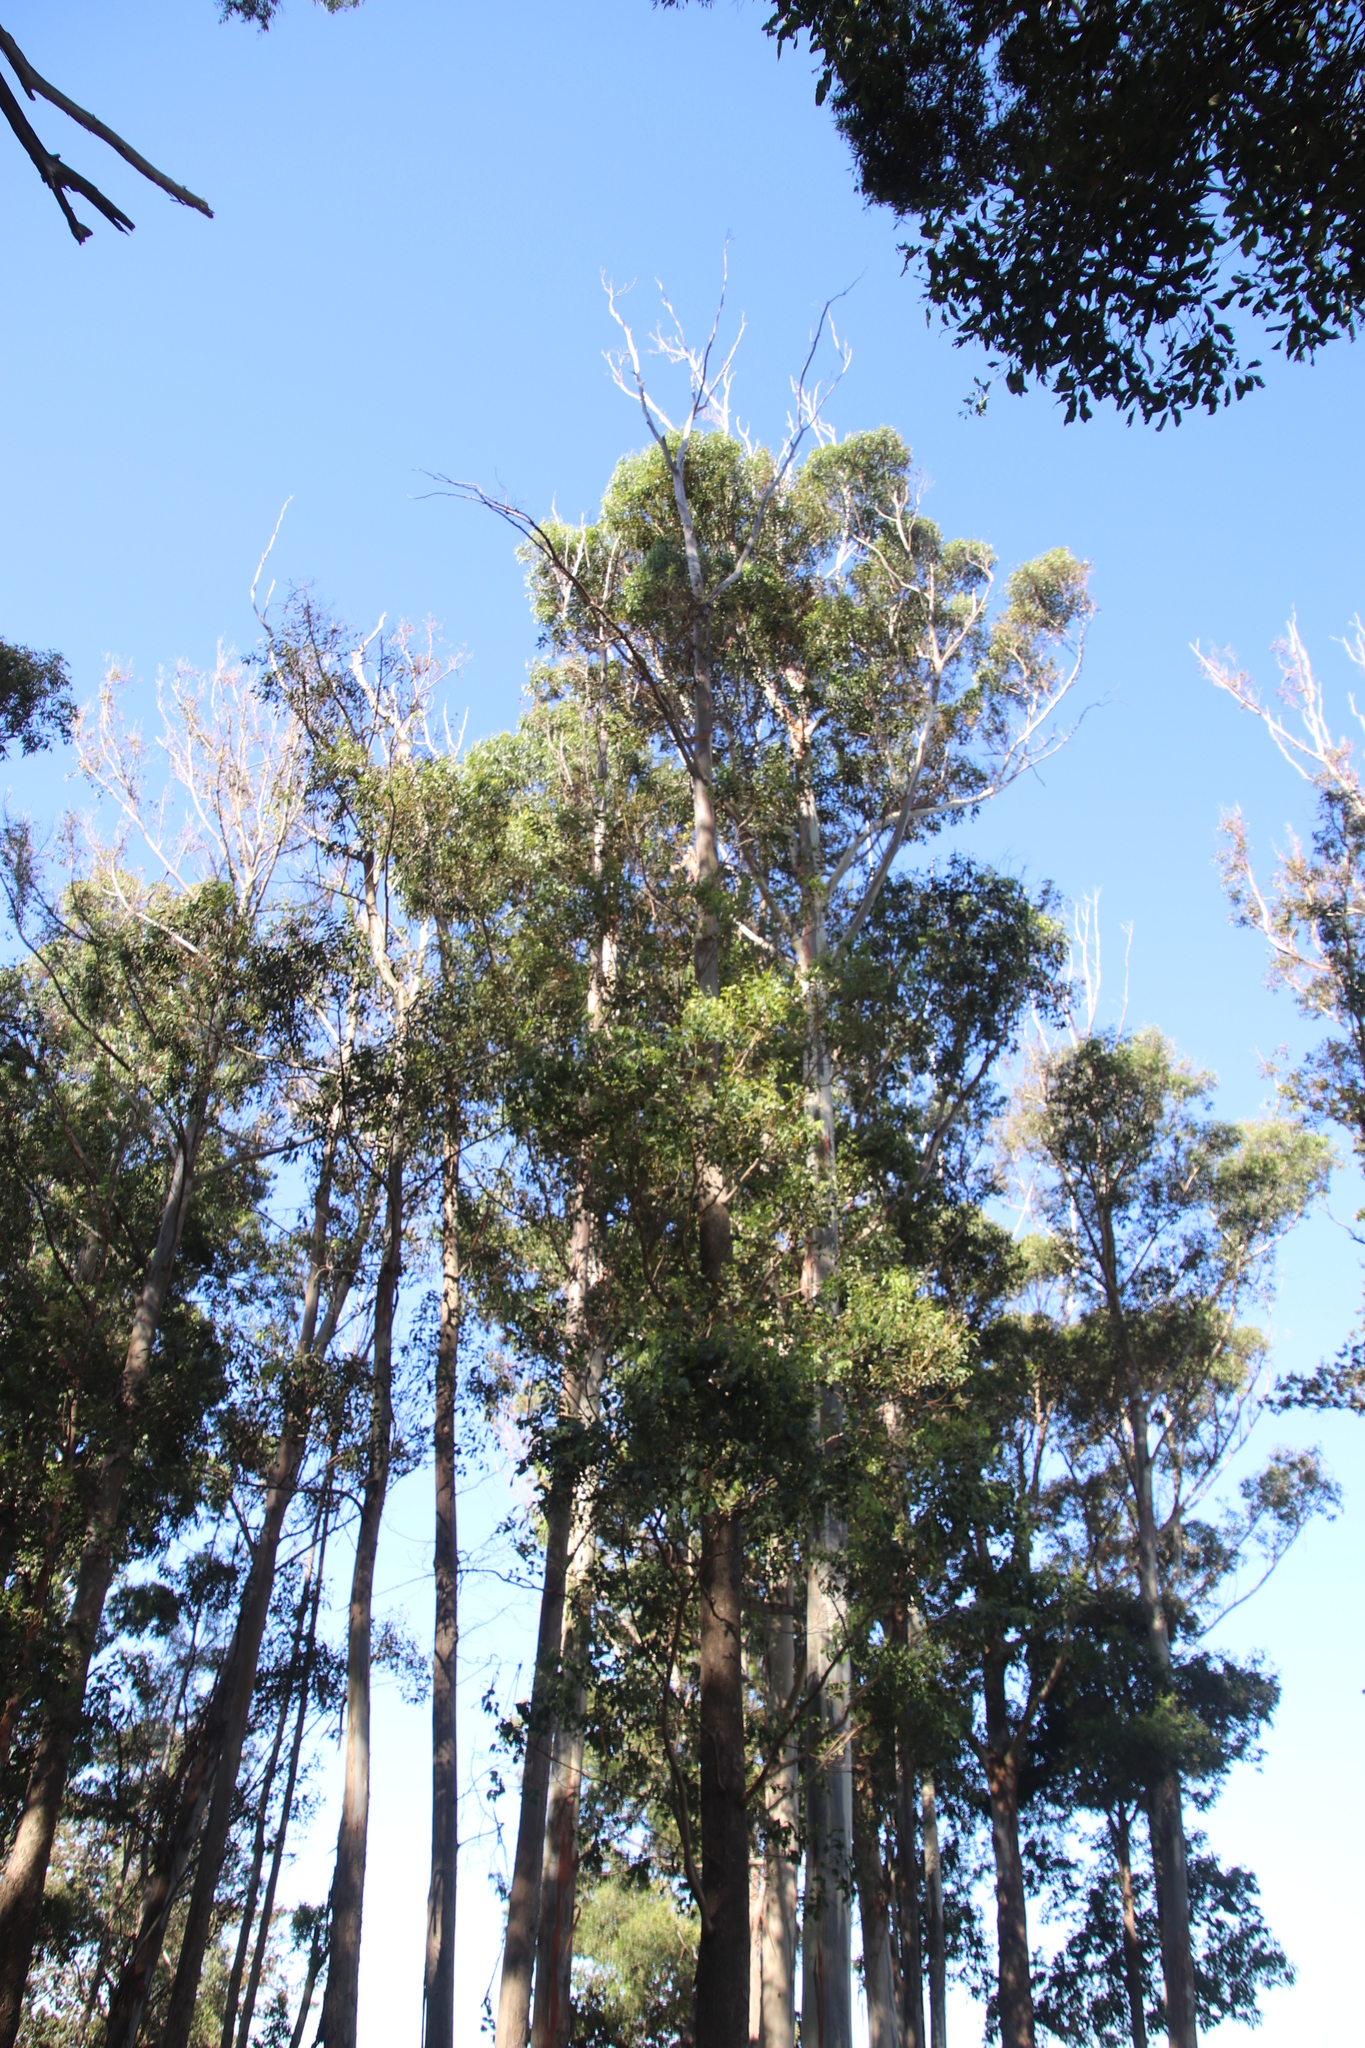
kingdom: Animalia
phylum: Arthropoda
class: Insecta
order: Coleoptera
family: Curculionidae
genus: Gonipterus
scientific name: Gonipterus
